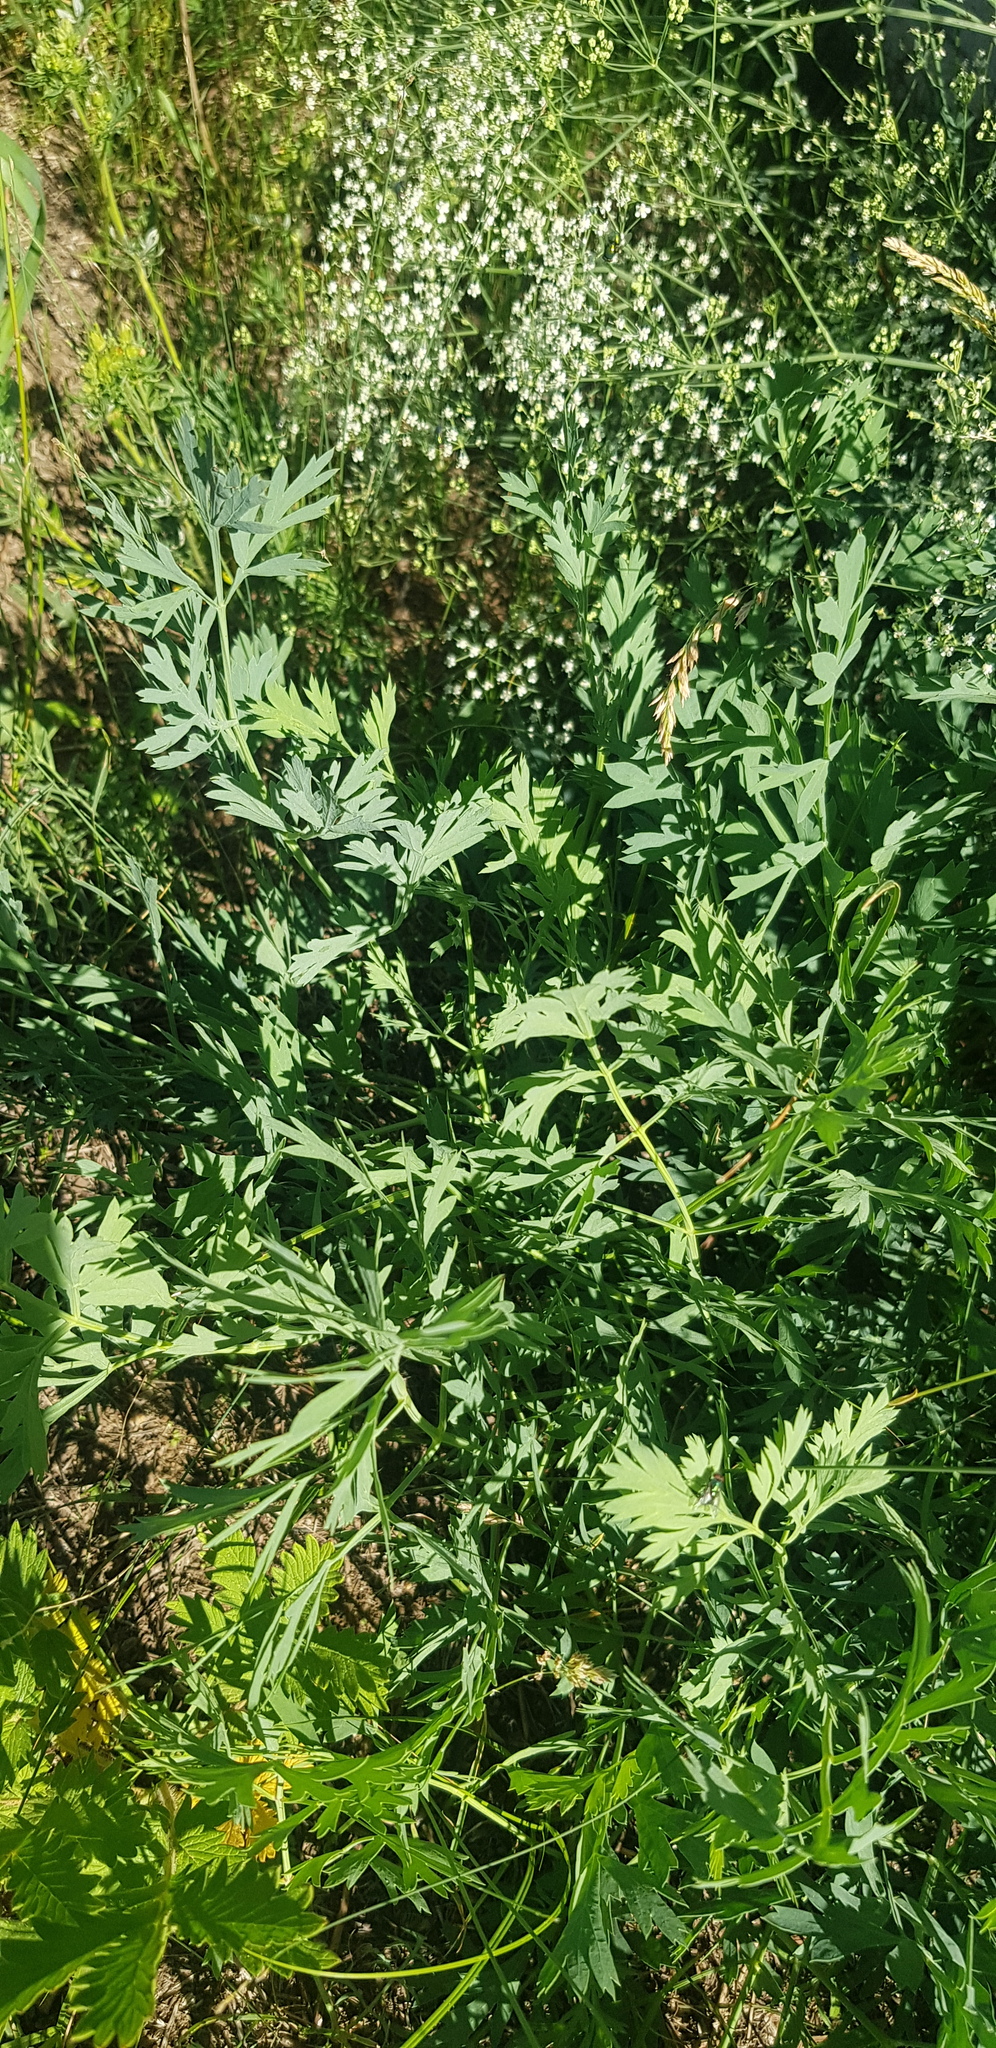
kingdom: Plantae
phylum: Tracheophyta
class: Magnoliopsida
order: Apiales
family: Apiaceae
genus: Saposhnikovia
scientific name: Saposhnikovia divaricata
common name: Siler
